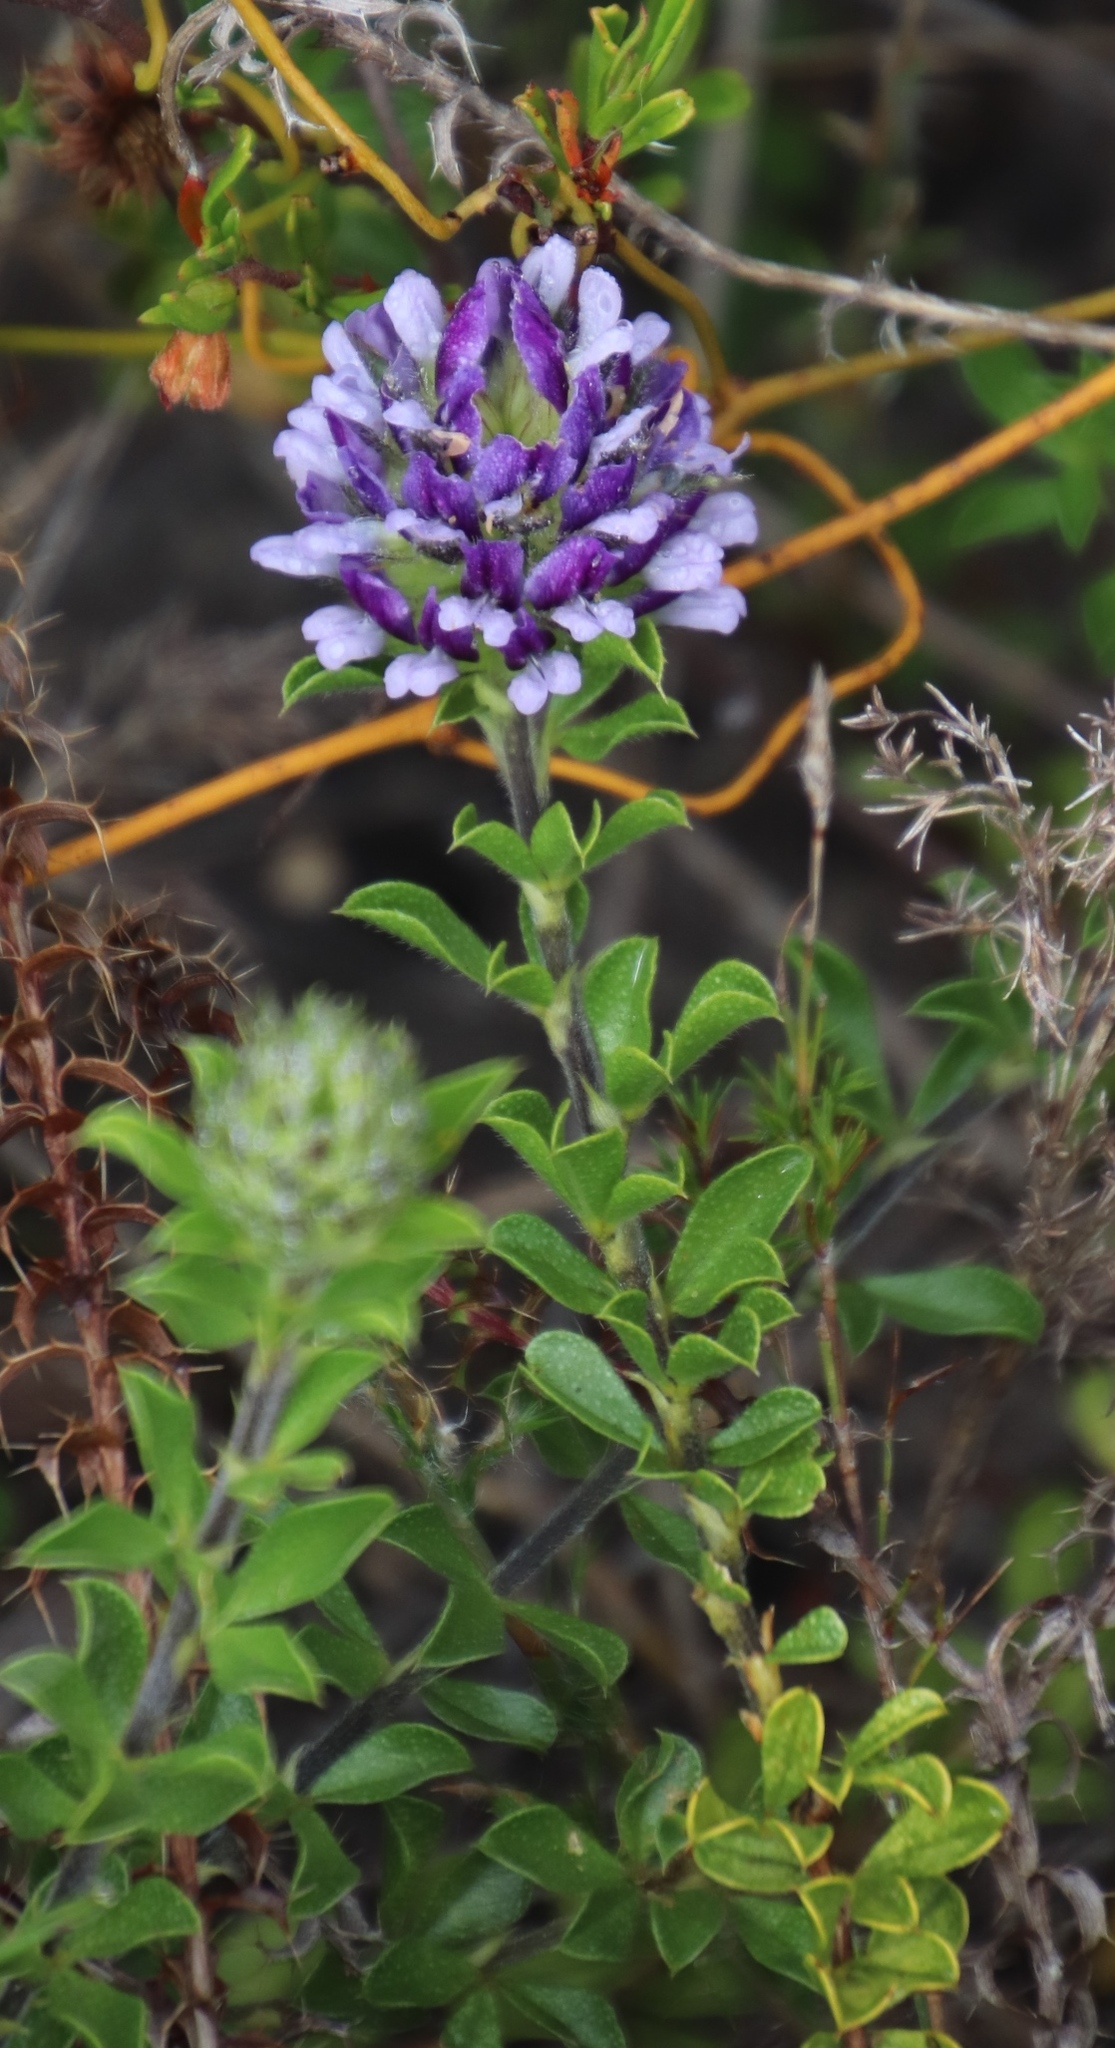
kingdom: Plantae
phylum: Tracheophyta
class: Magnoliopsida
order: Fabales
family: Fabaceae
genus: Psoralea
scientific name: Psoralea fruticans
